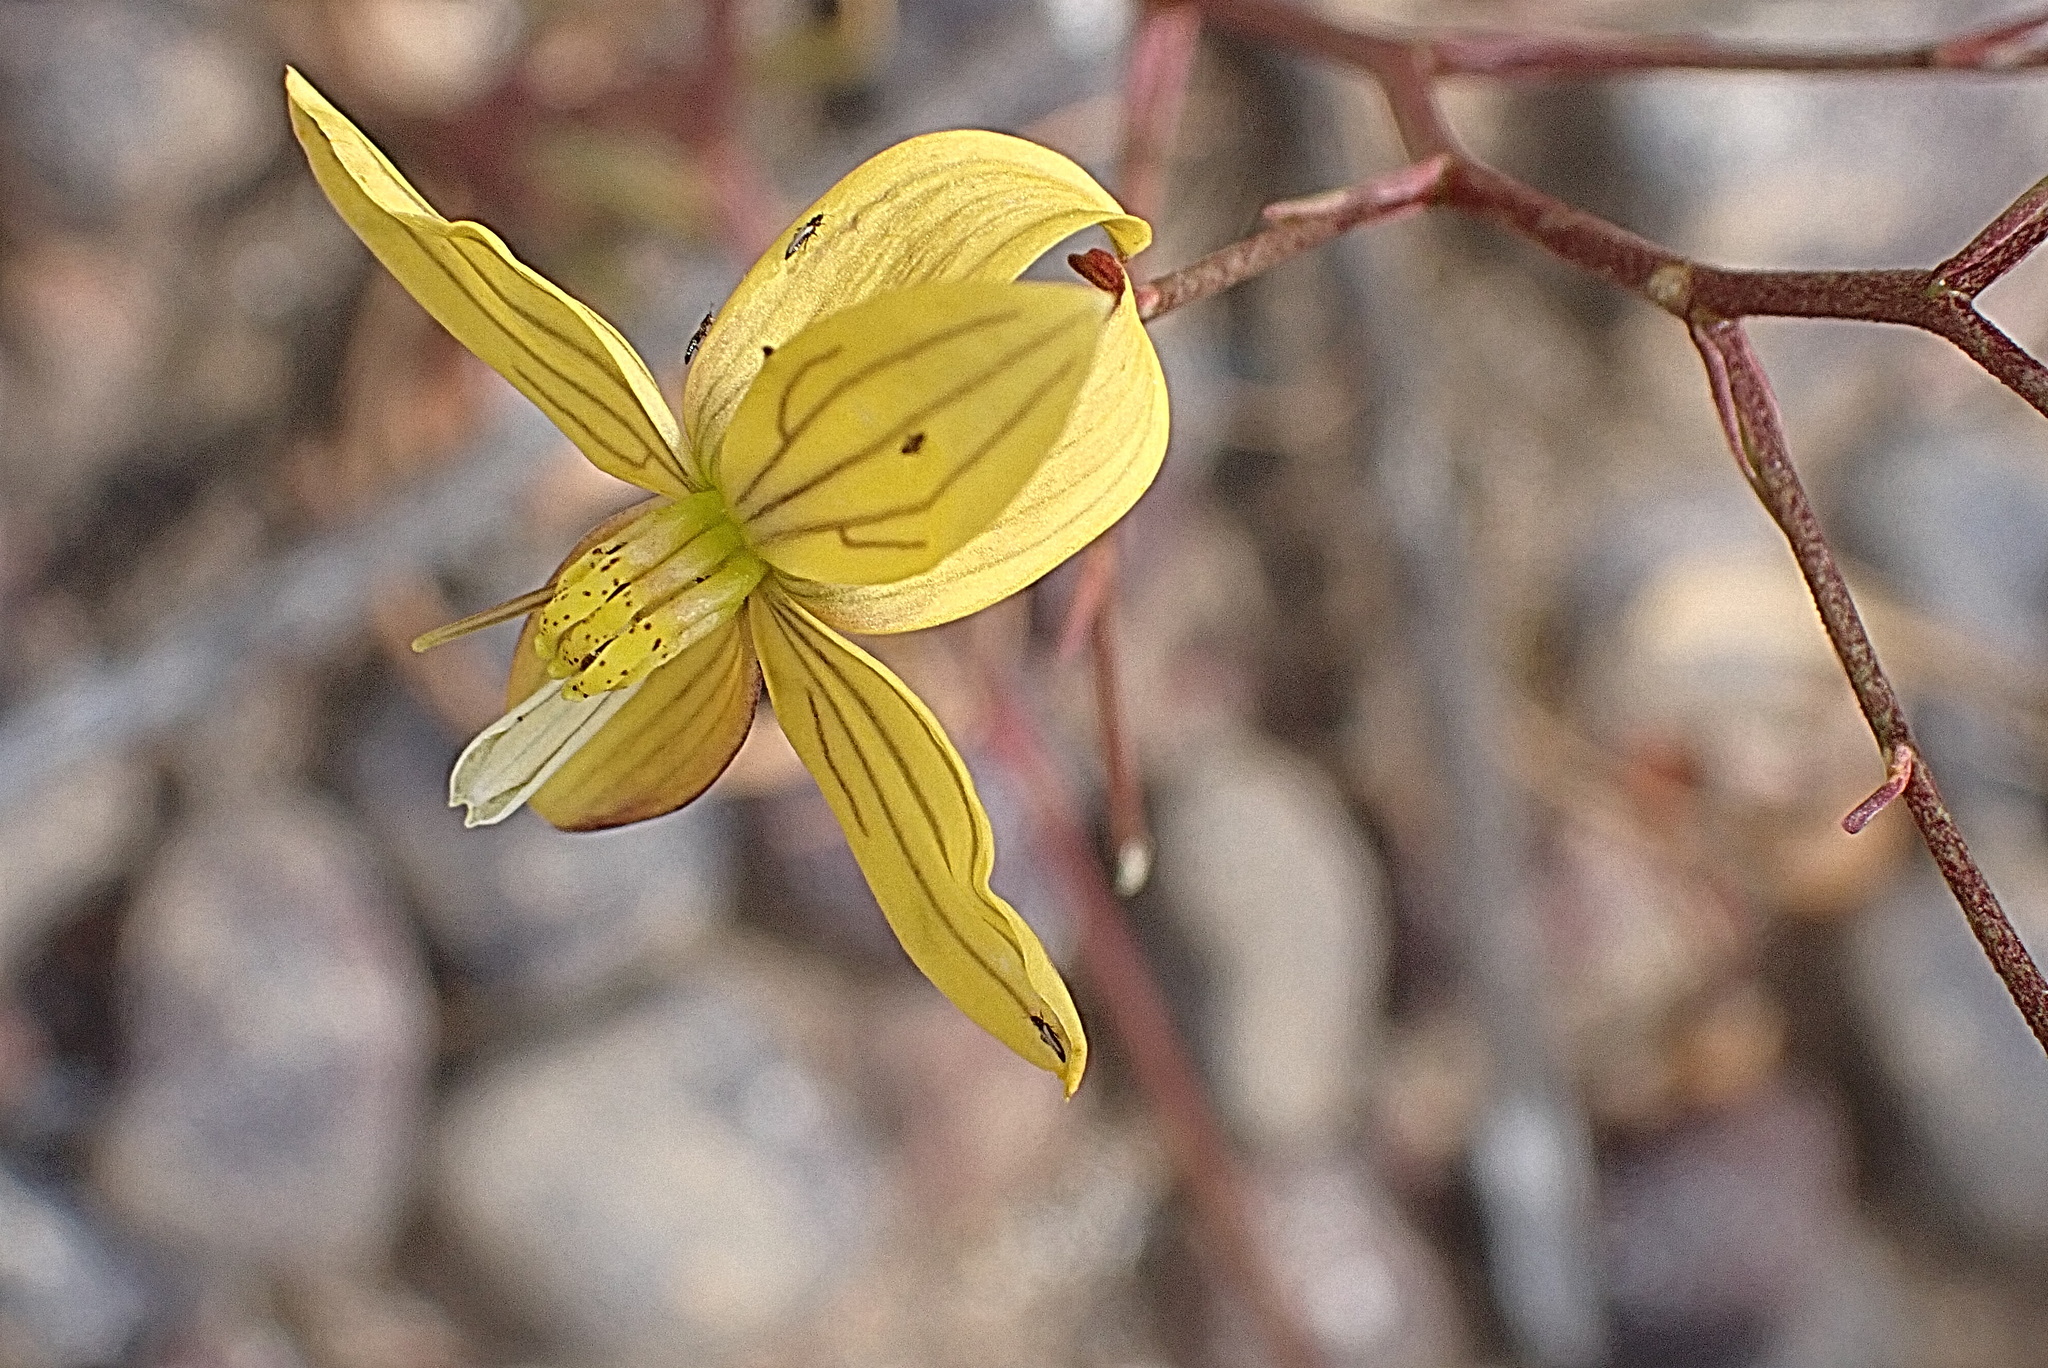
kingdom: Plantae
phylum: Tracheophyta
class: Liliopsida
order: Asparagales
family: Tecophilaeaceae
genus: Cyanella
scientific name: Cyanella lutea
